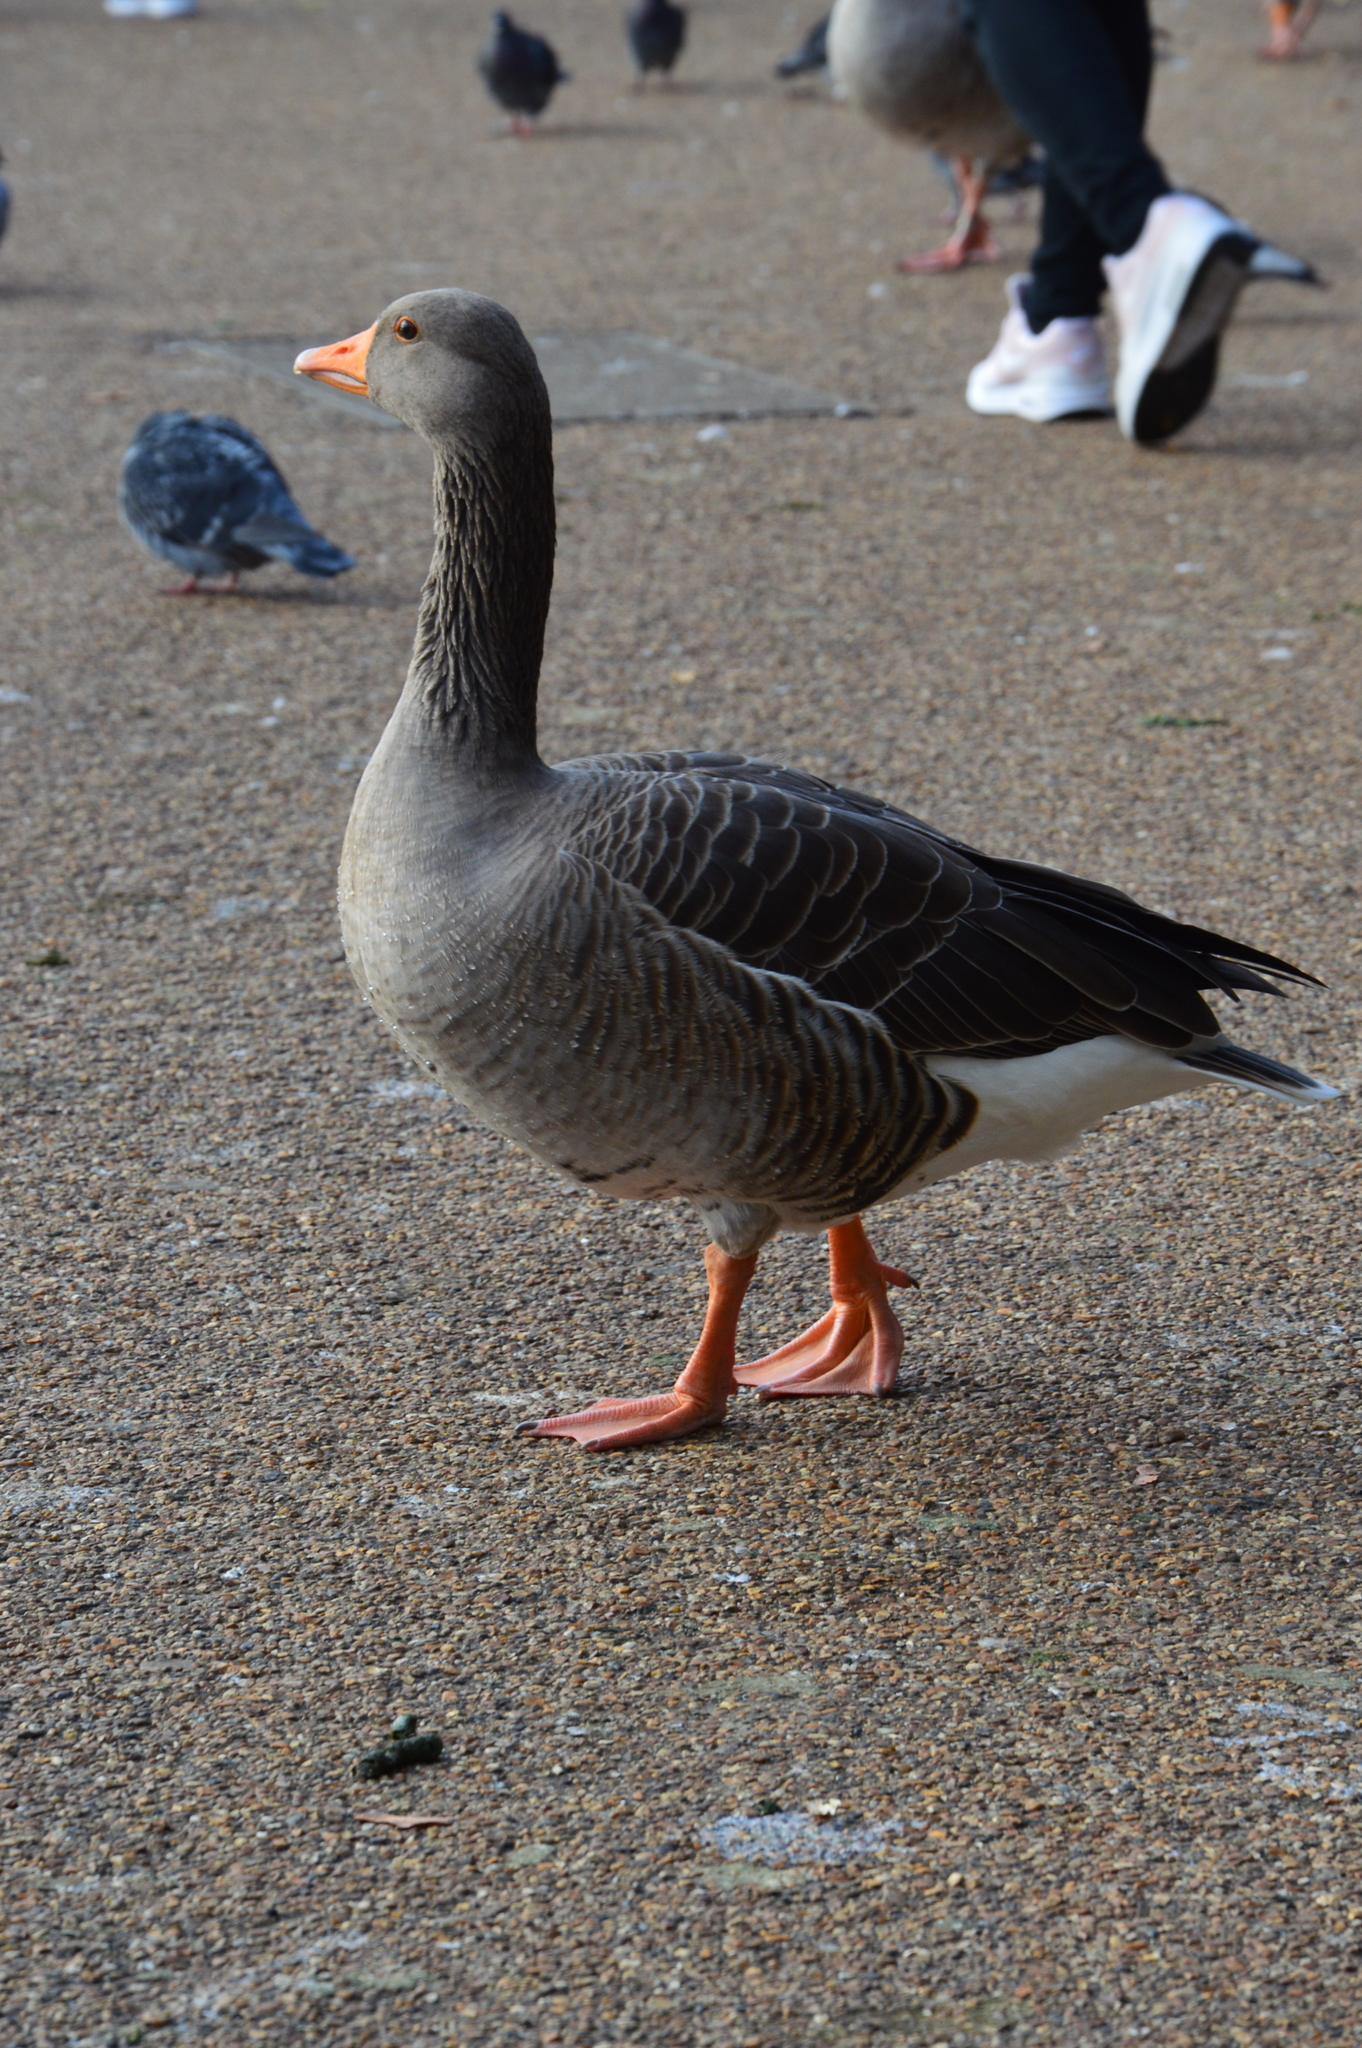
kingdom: Animalia
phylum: Chordata
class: Aves
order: Anseriformes
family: Anatidae
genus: Anser
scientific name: Anser anser
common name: Greylag goose
